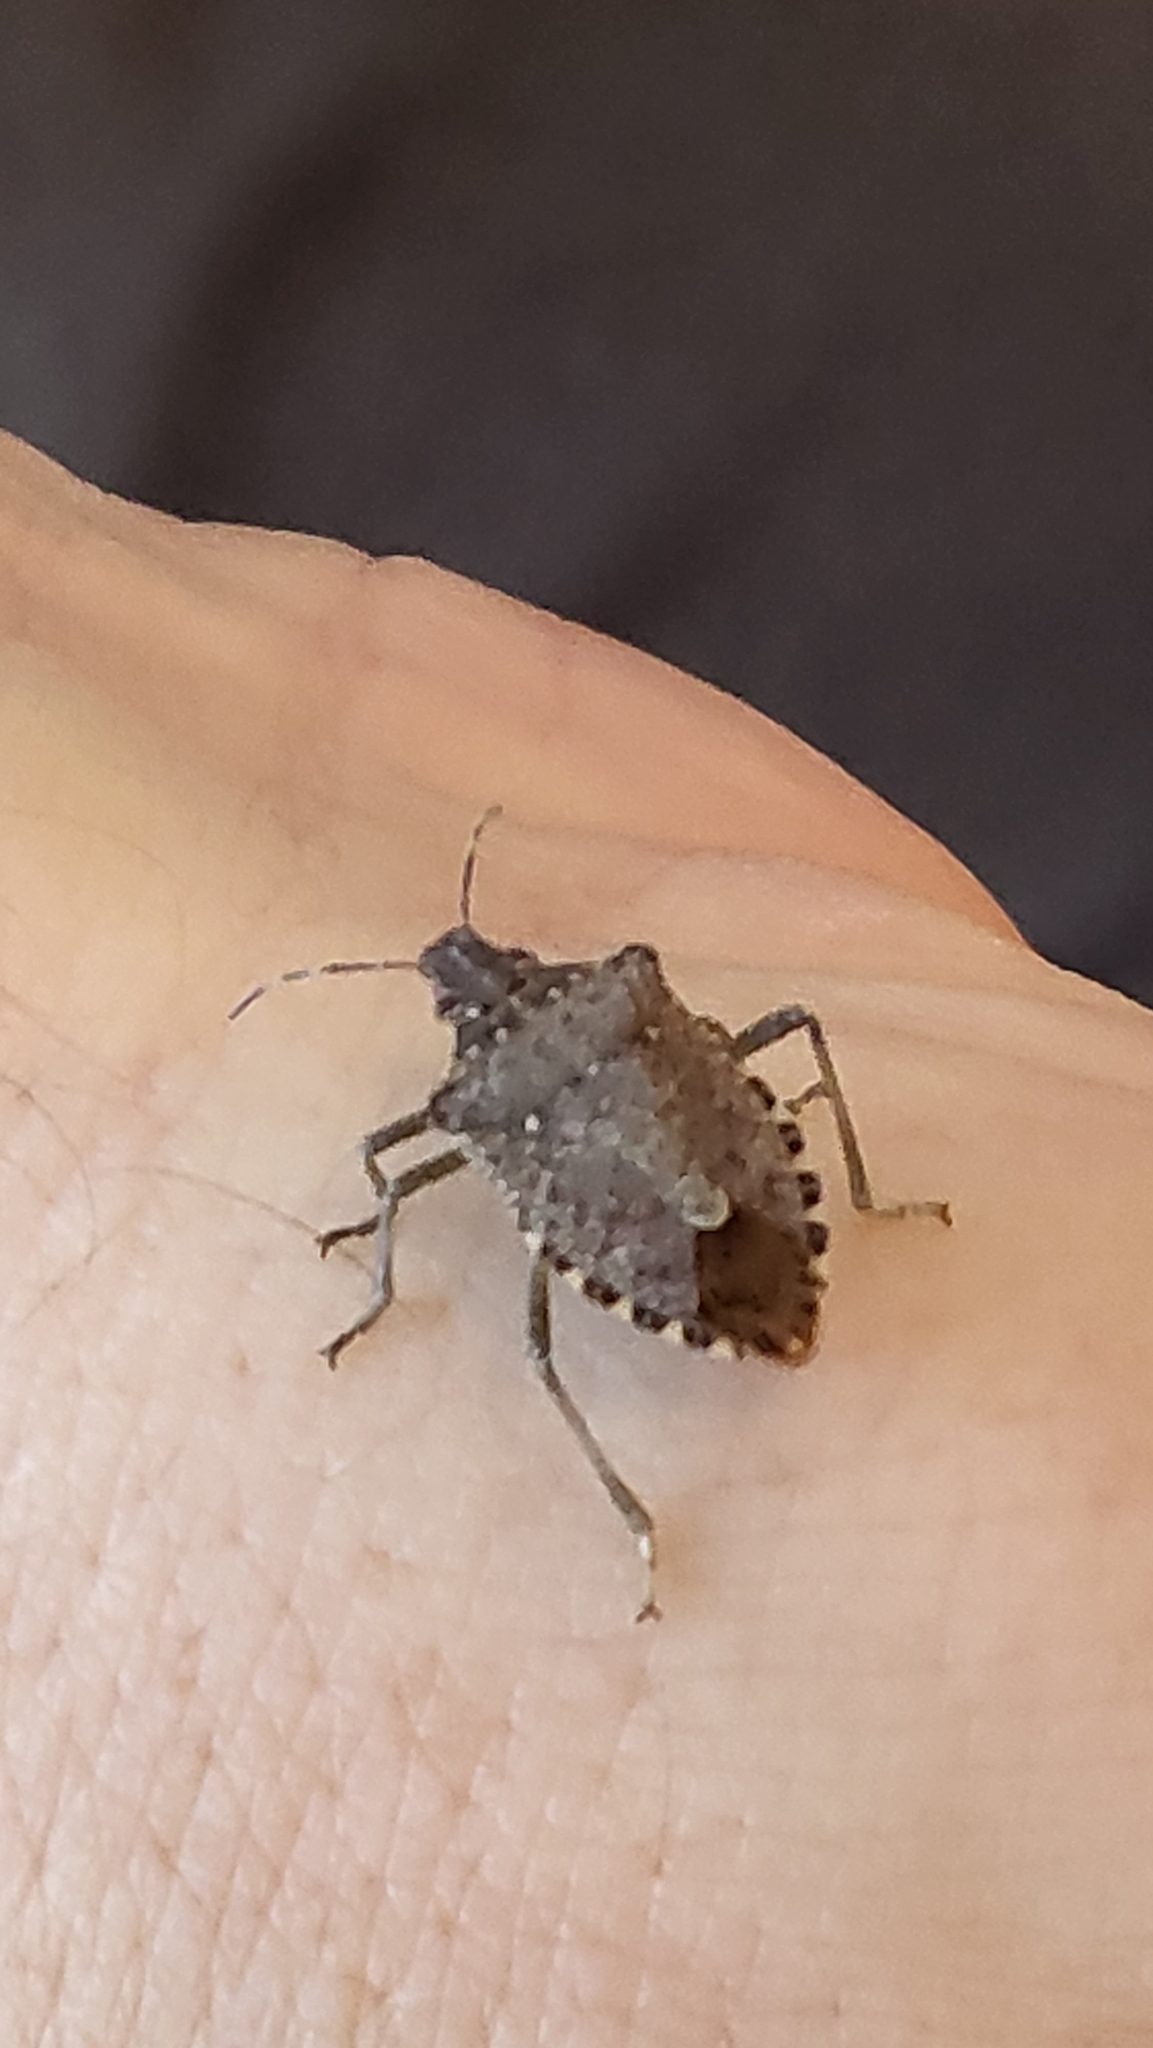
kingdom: Animalia
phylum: Arthropoda
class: Insecta
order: Hemiptera
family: Pentatomidae
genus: Halyomorpha
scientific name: Halyomorpha halys
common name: Brown marmorated stink bug
